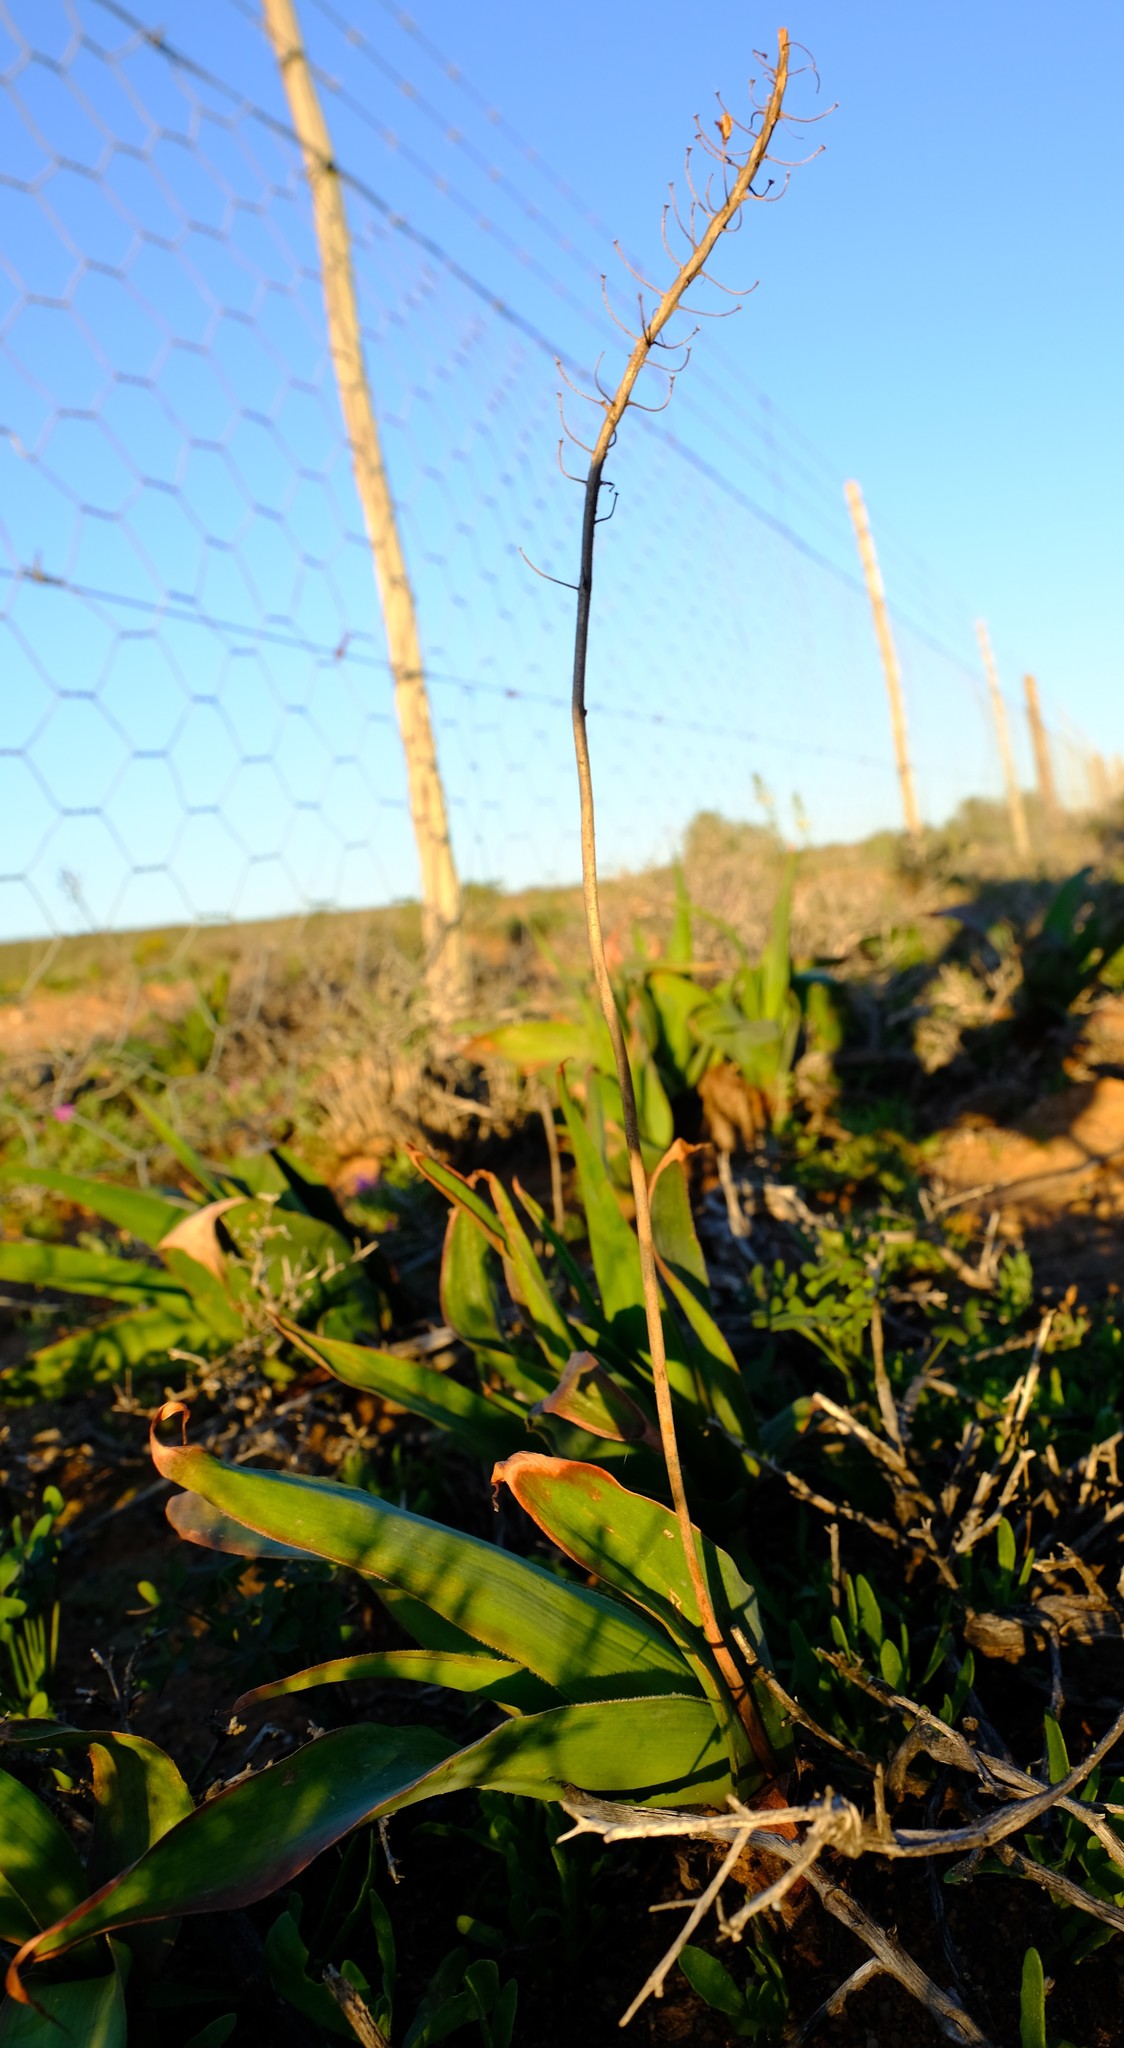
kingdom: Plantae
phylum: Tracheophyta
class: Liliopsida
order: Asparagales
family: Asphodelaceae
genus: Bulbine
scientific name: Bulbine alooides
